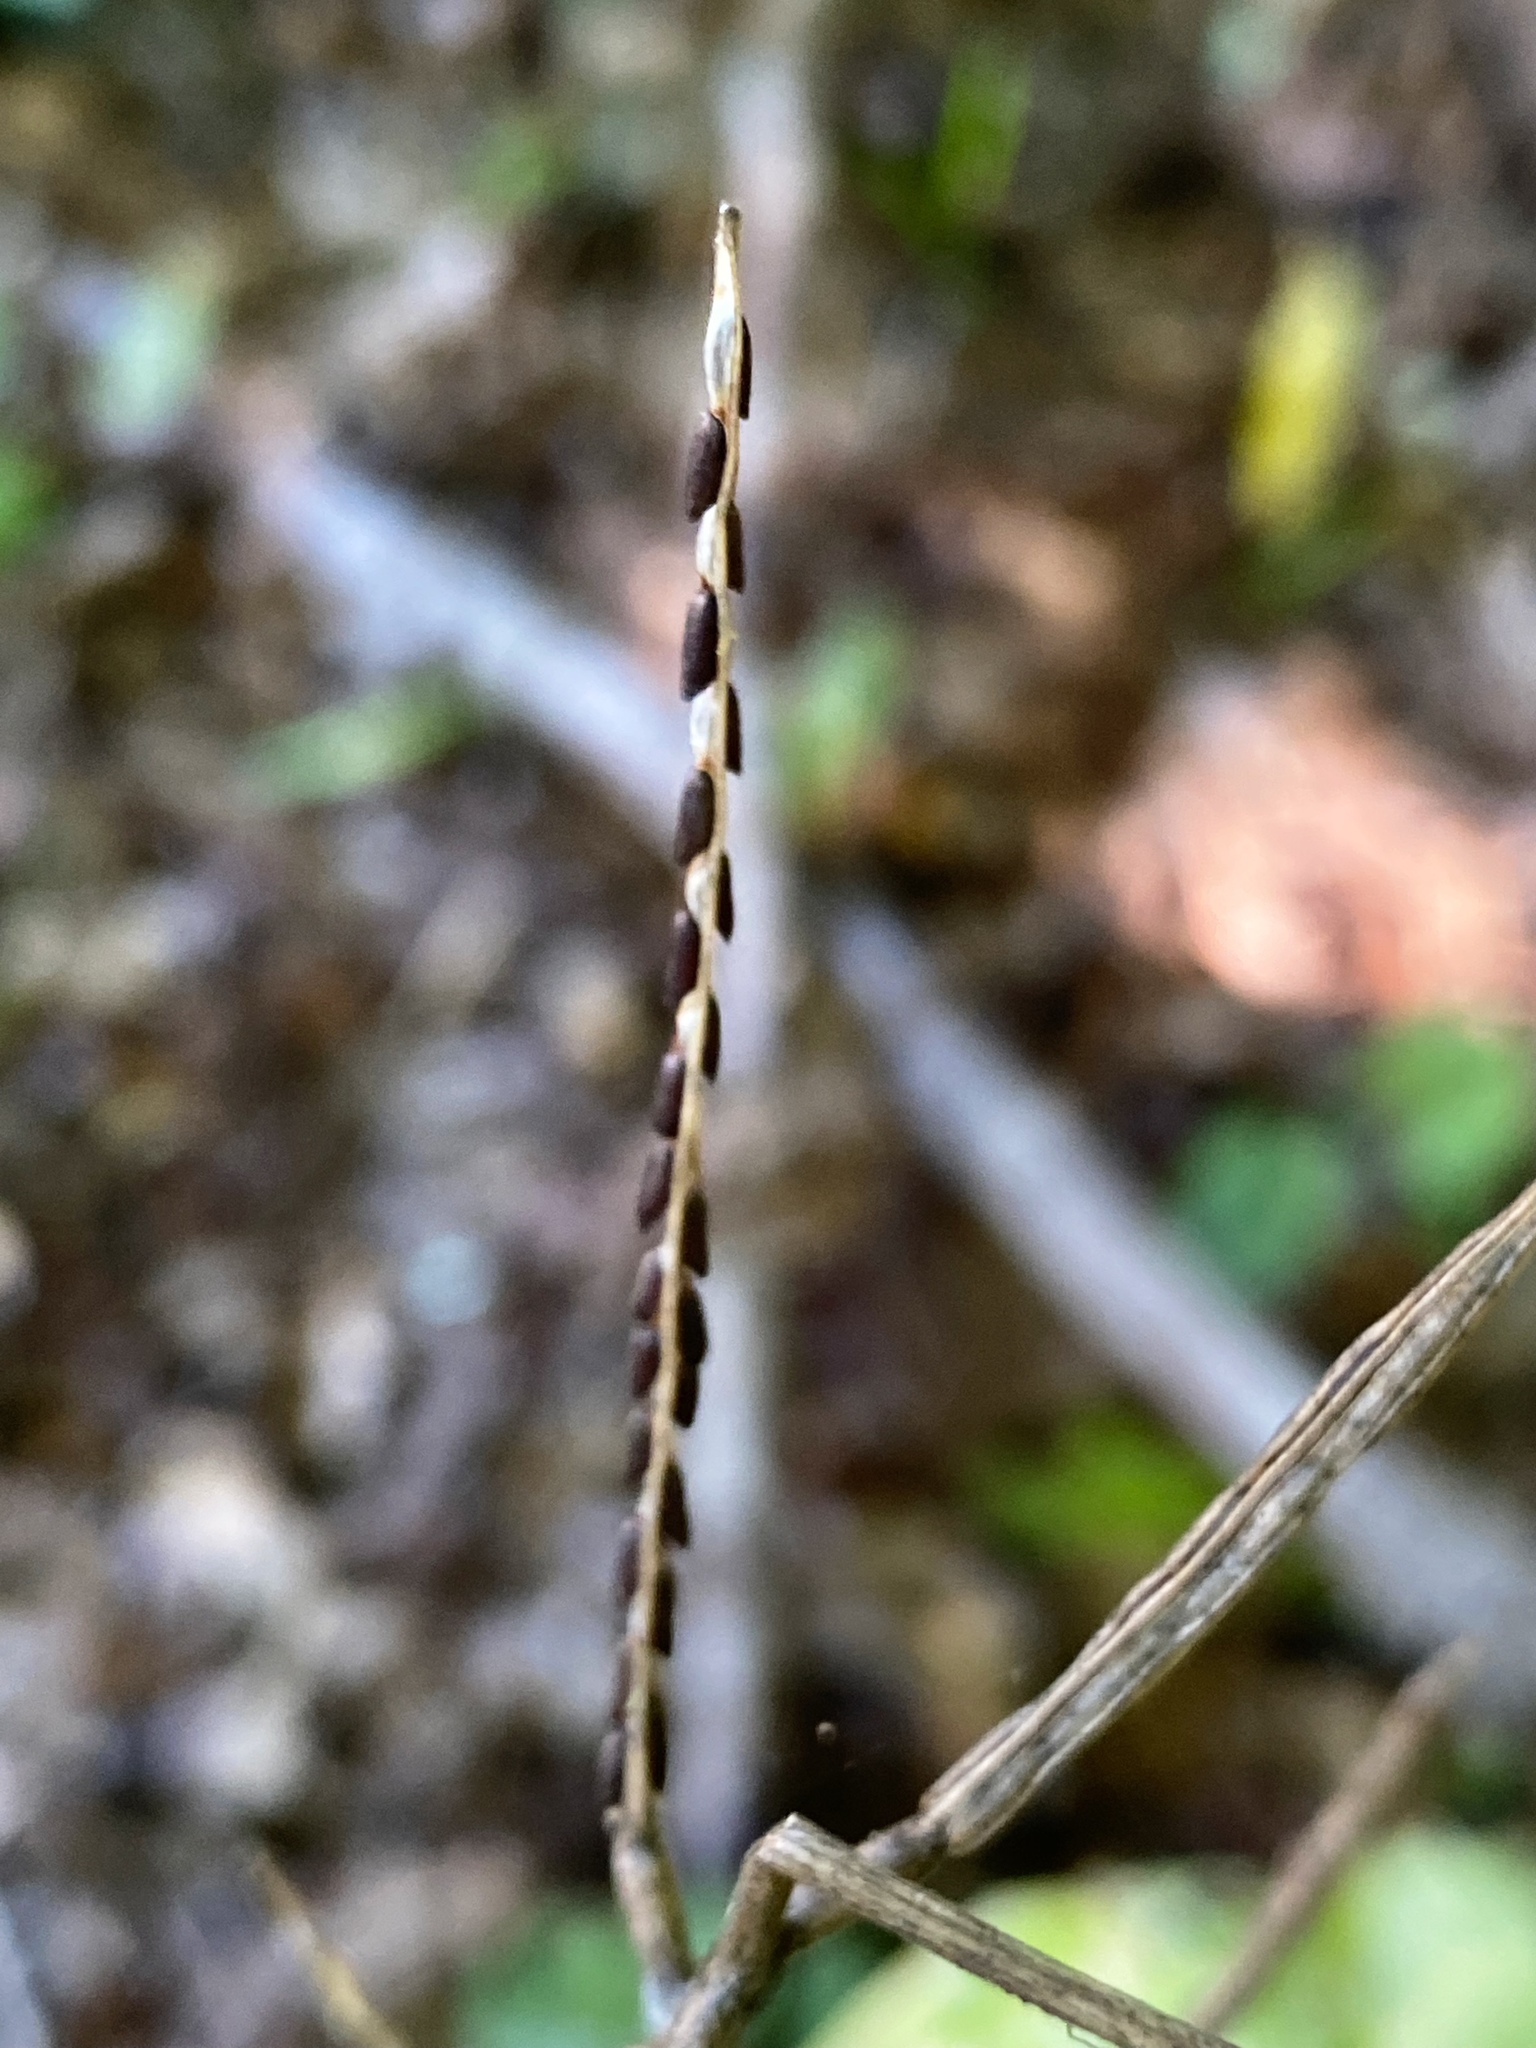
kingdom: Plantae
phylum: Tracheophyta
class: Magnoliopsida
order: Brassicales
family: Brassicaceae
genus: Alliaria
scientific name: Alliaria petiolata
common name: Garlic mustard
